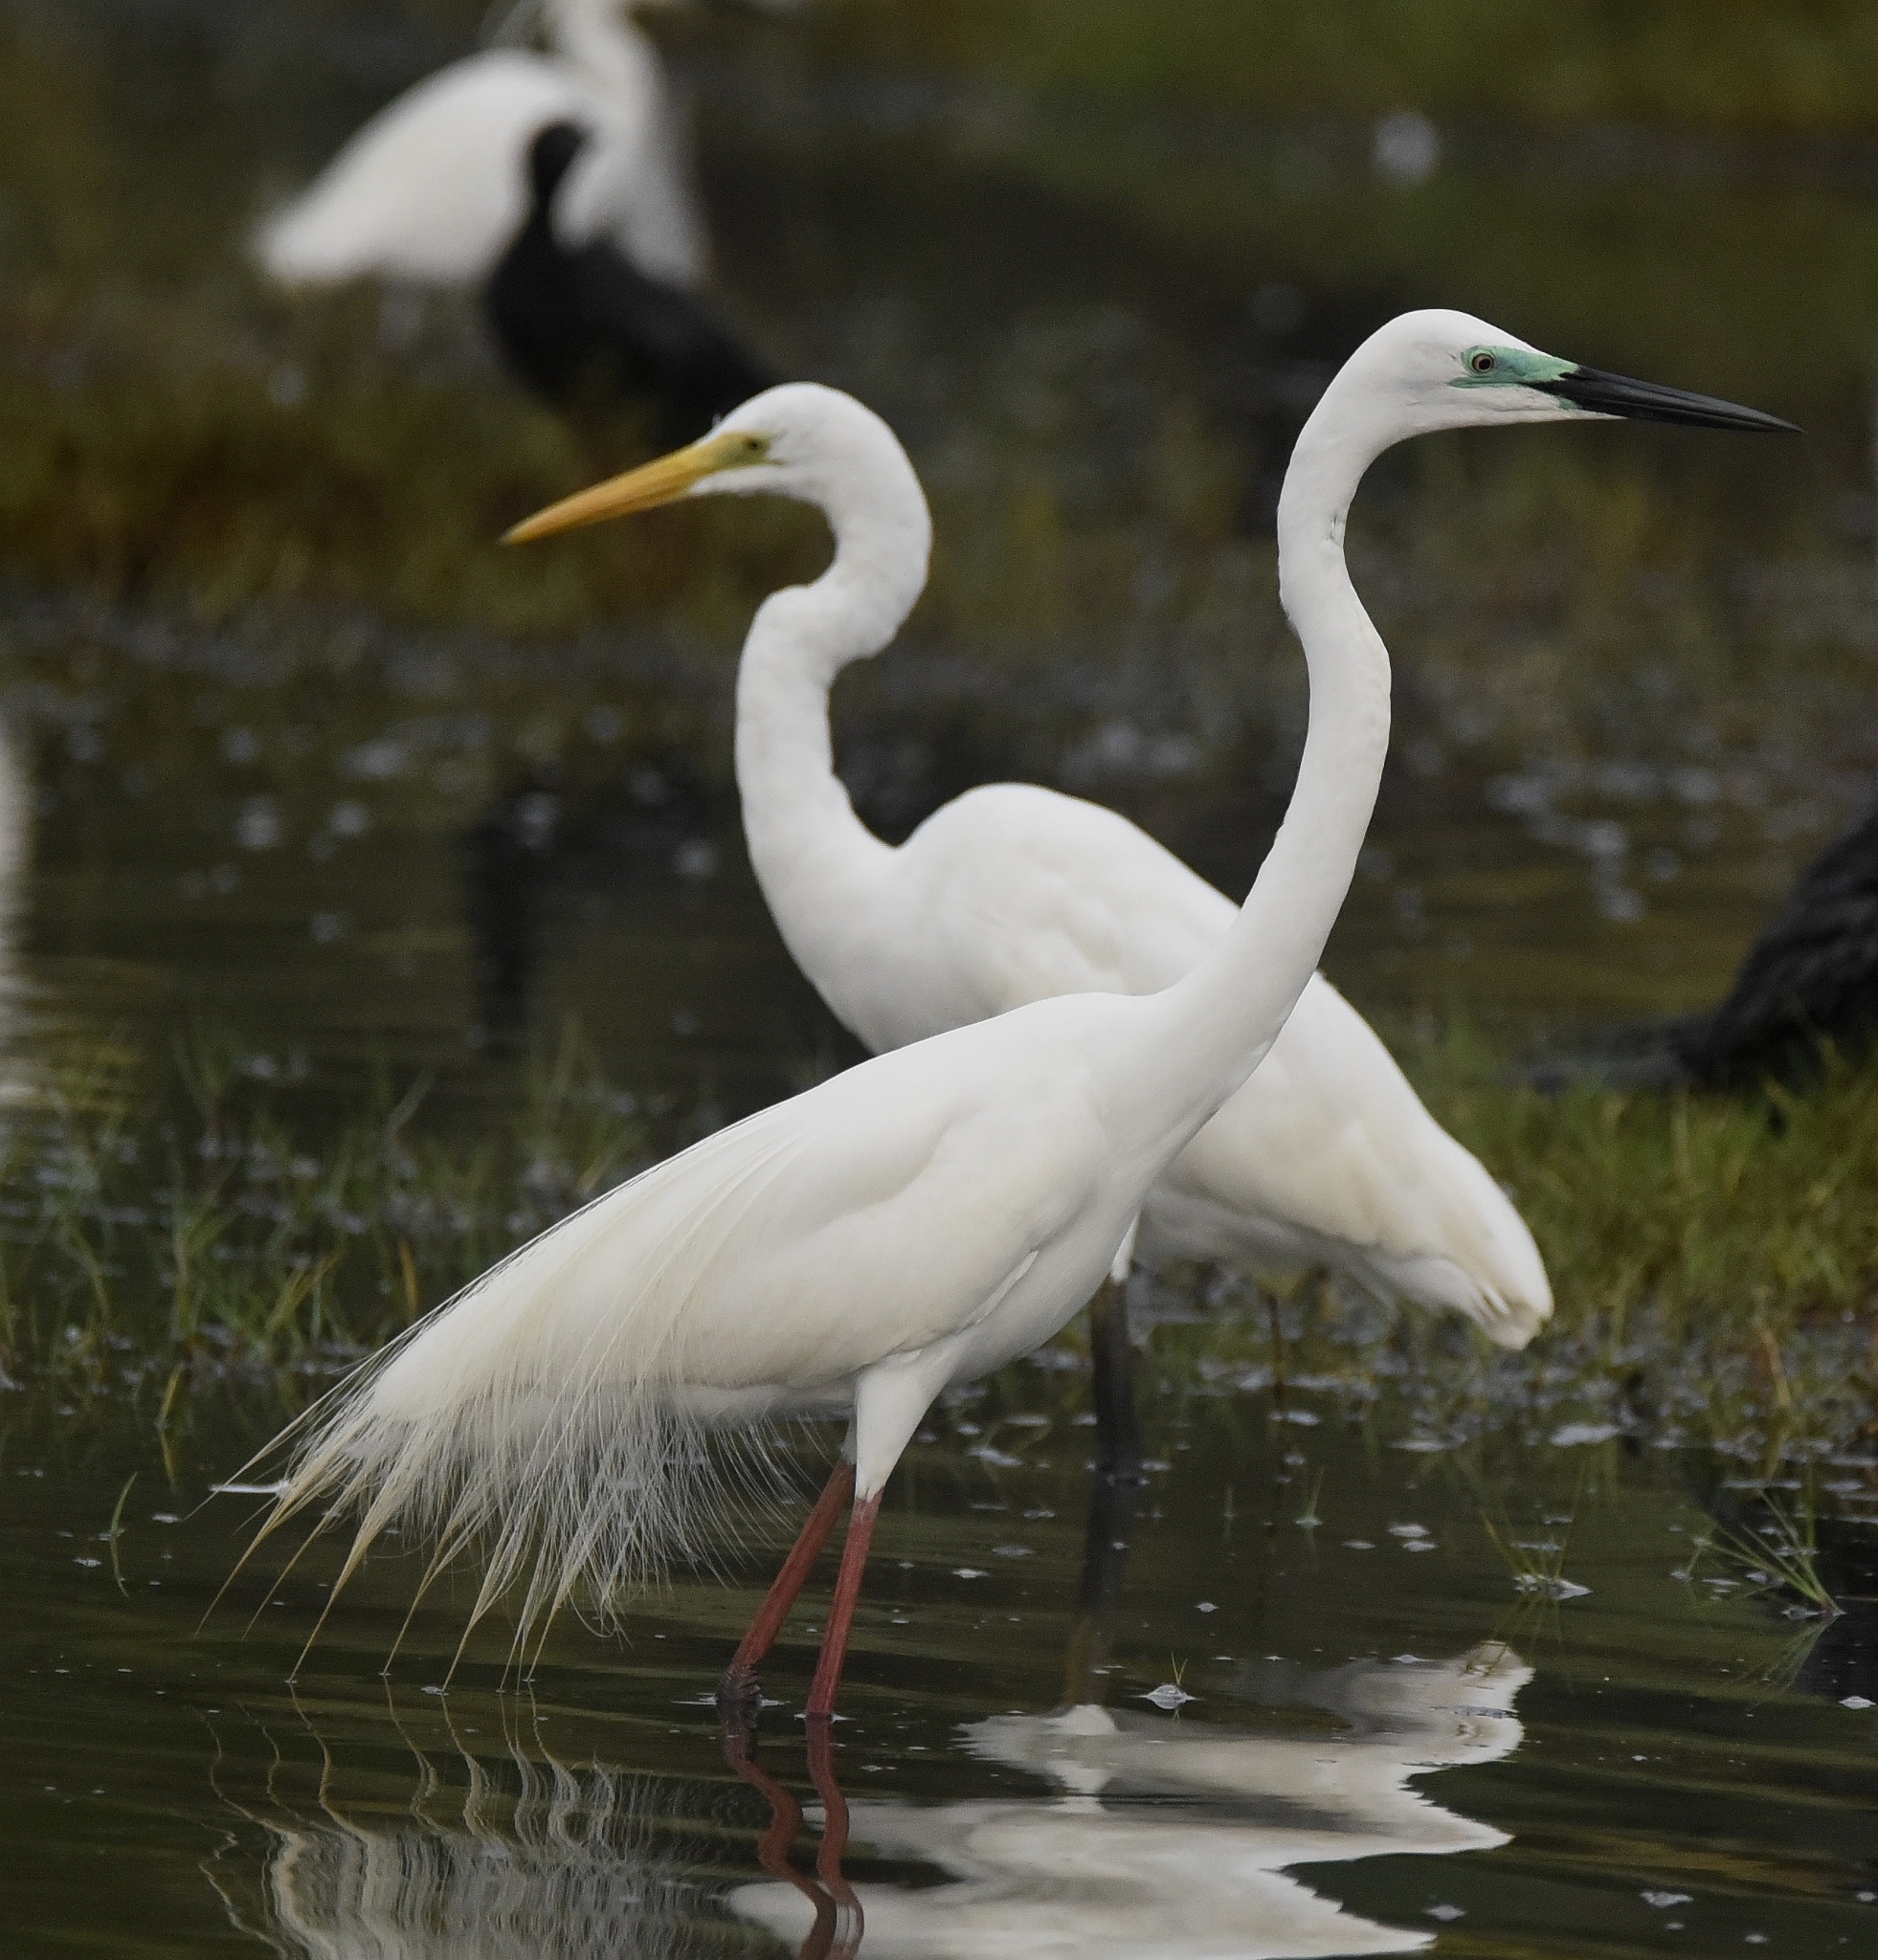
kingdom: Animalia
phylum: Chordata
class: Aves
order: Pelecaniformes
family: Ardeidae
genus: Ardea
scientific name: Ardea alba
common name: Great egret
